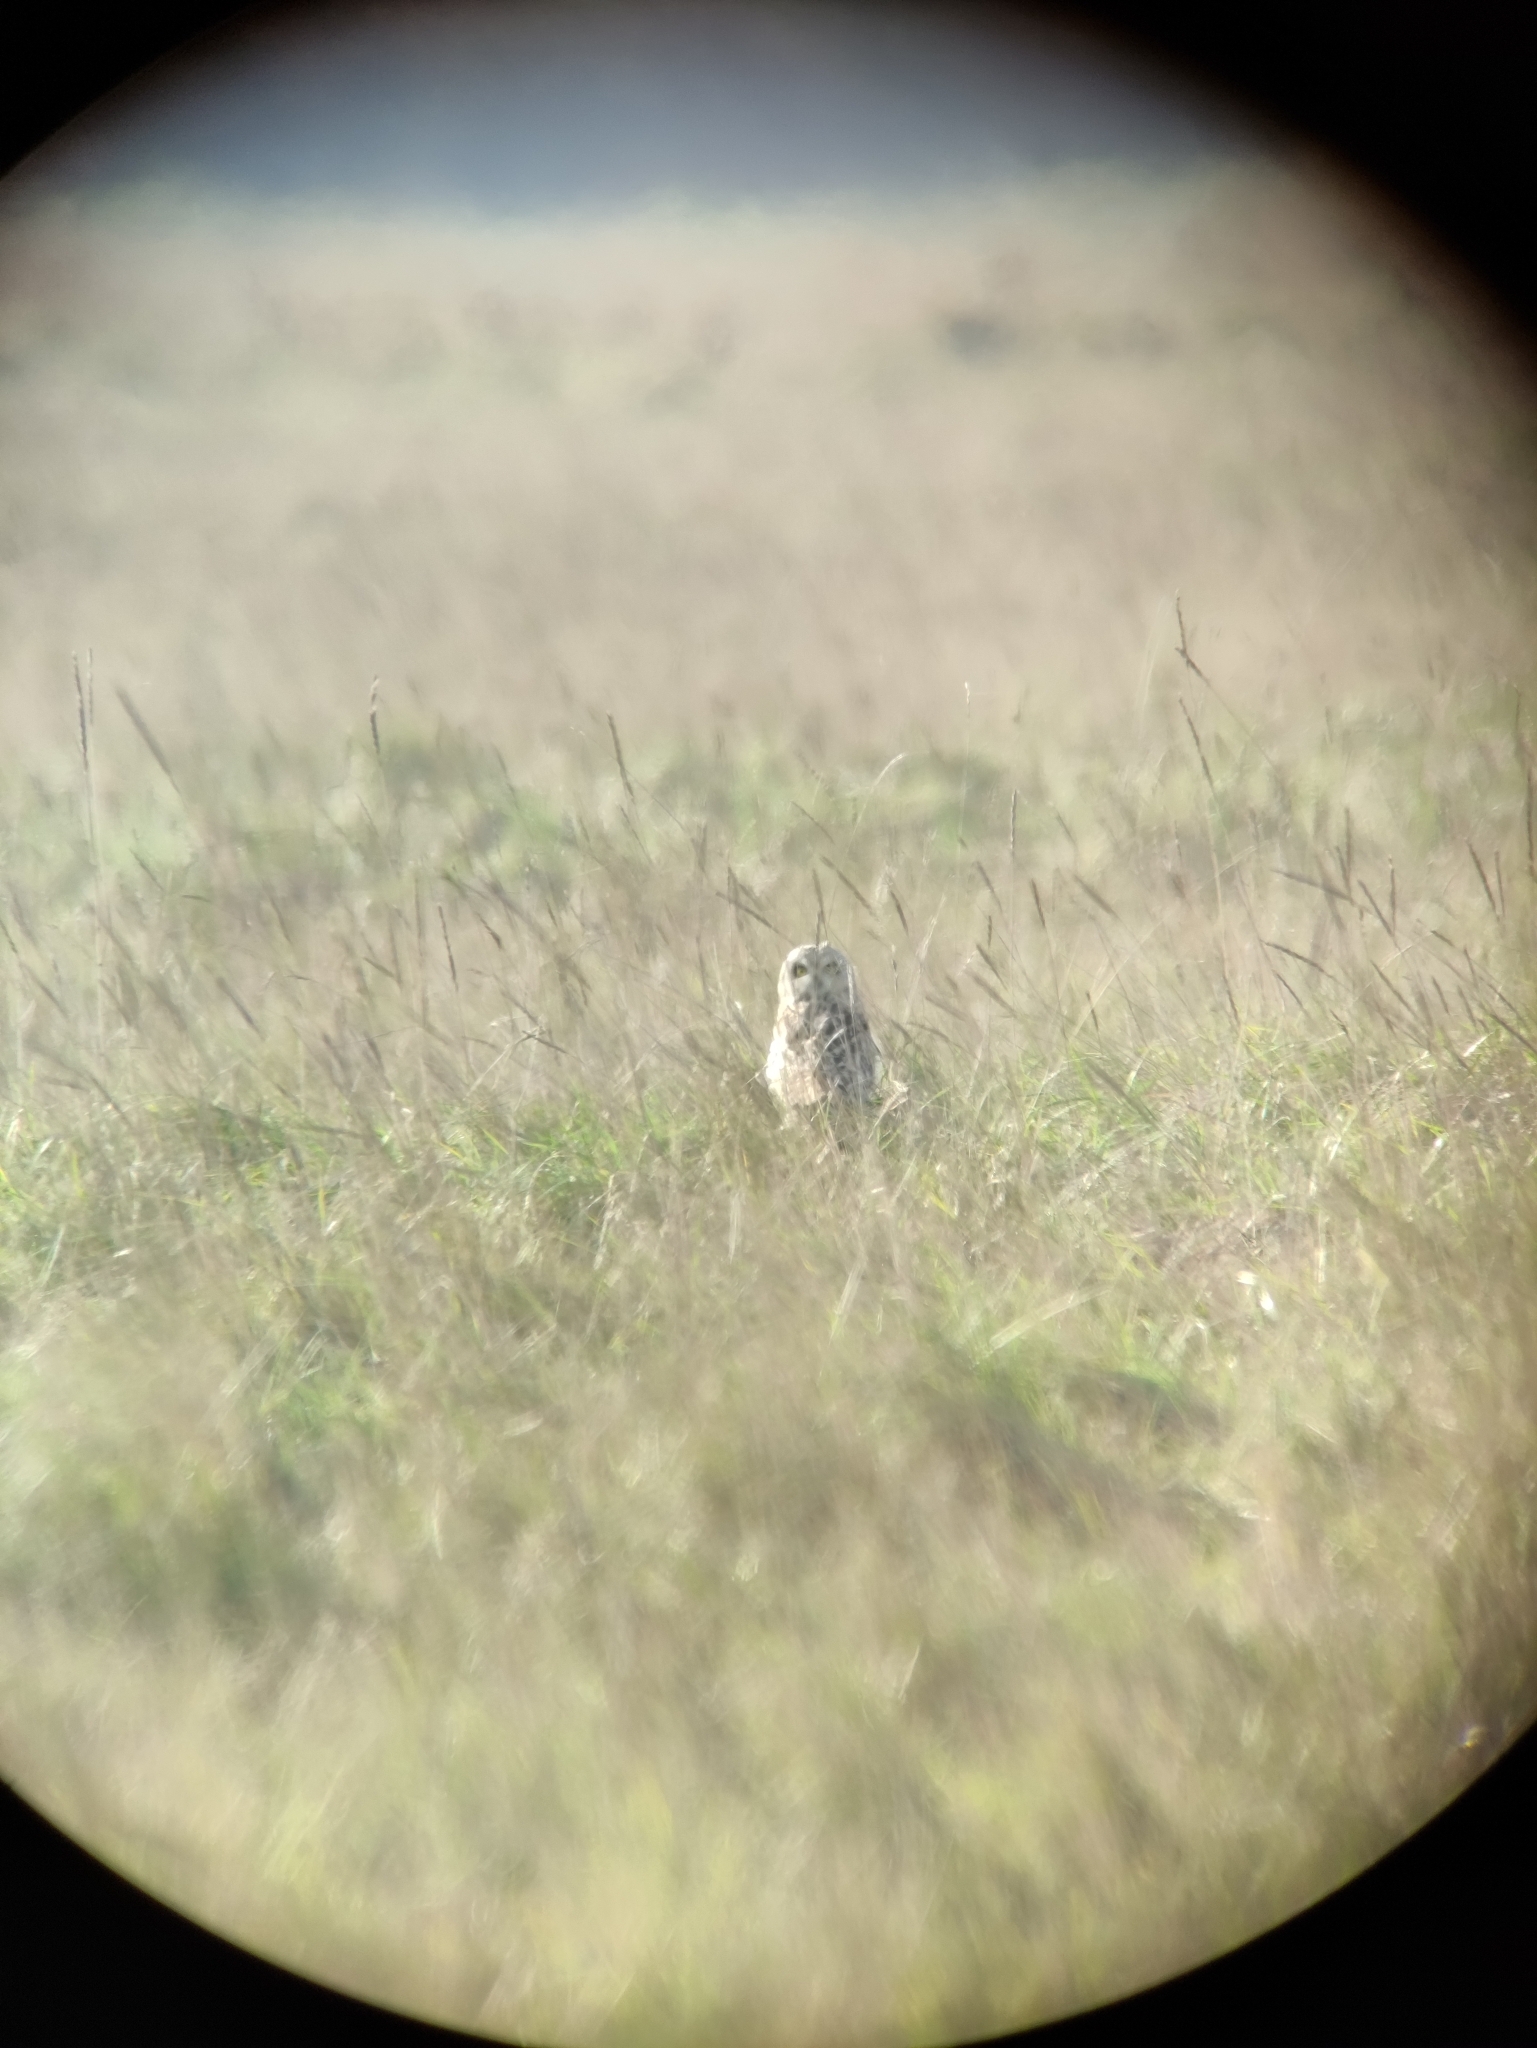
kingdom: Animalia
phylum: Chordata
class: Aves
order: Strigiformes
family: Strigidae
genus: Asio
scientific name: Asio flammeus
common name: Short-eared owl
